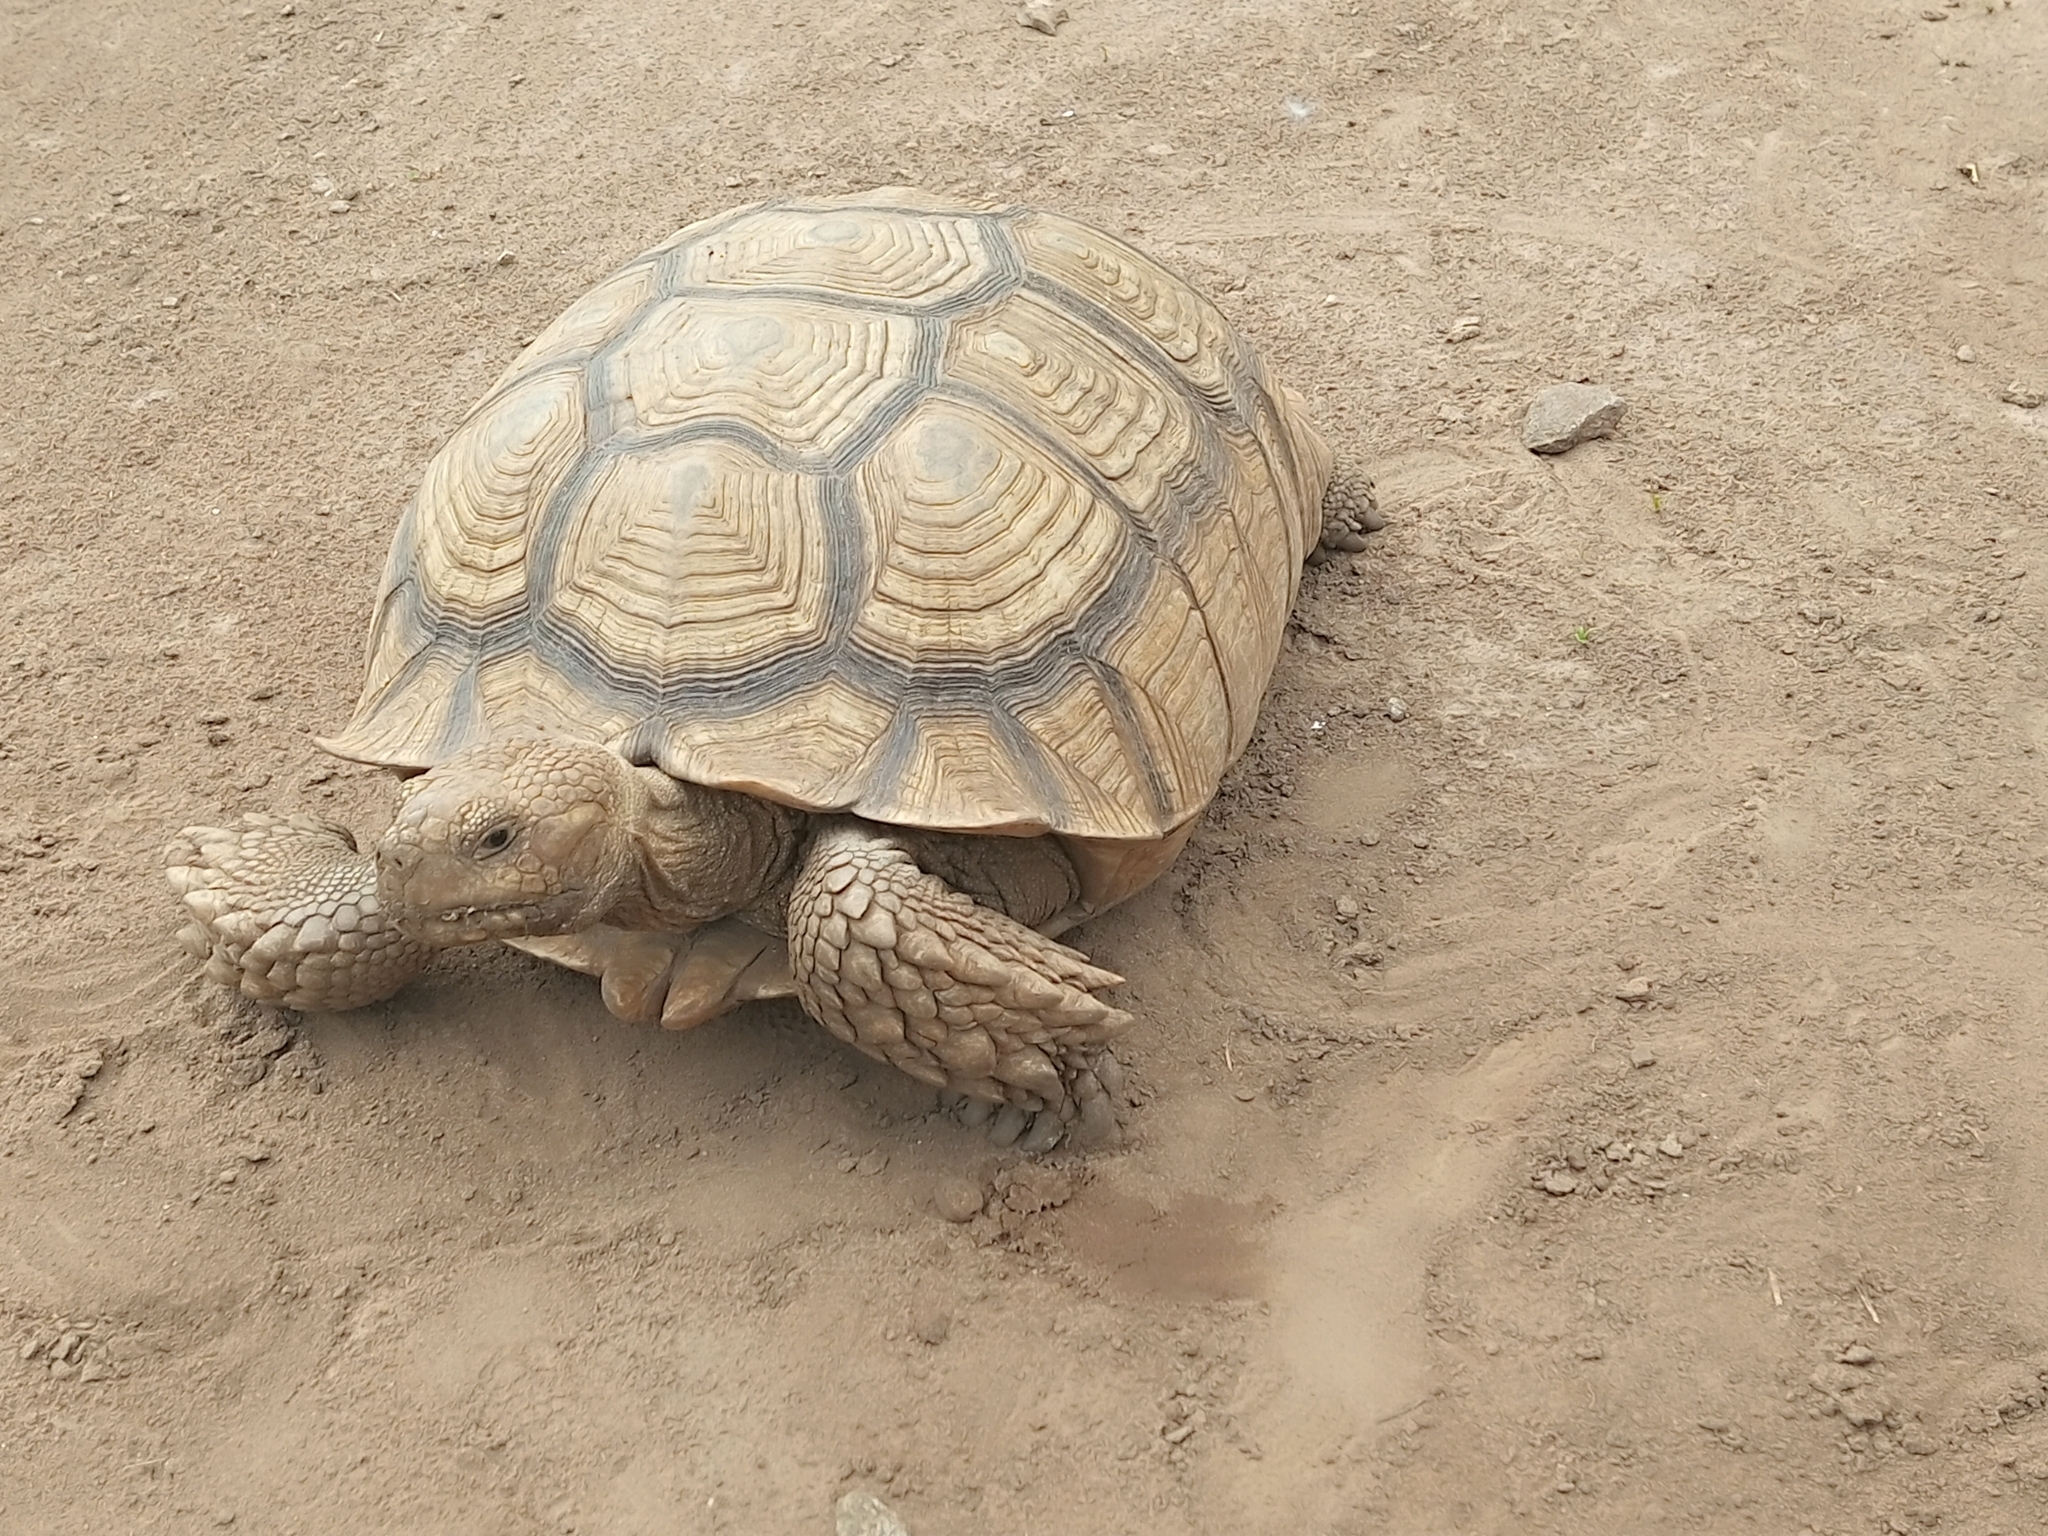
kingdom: Animalia
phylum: Chordata
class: Testudines
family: Testudinidae
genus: Centrochelys
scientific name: Centrochelys sulcata
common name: African spurred tortoise
